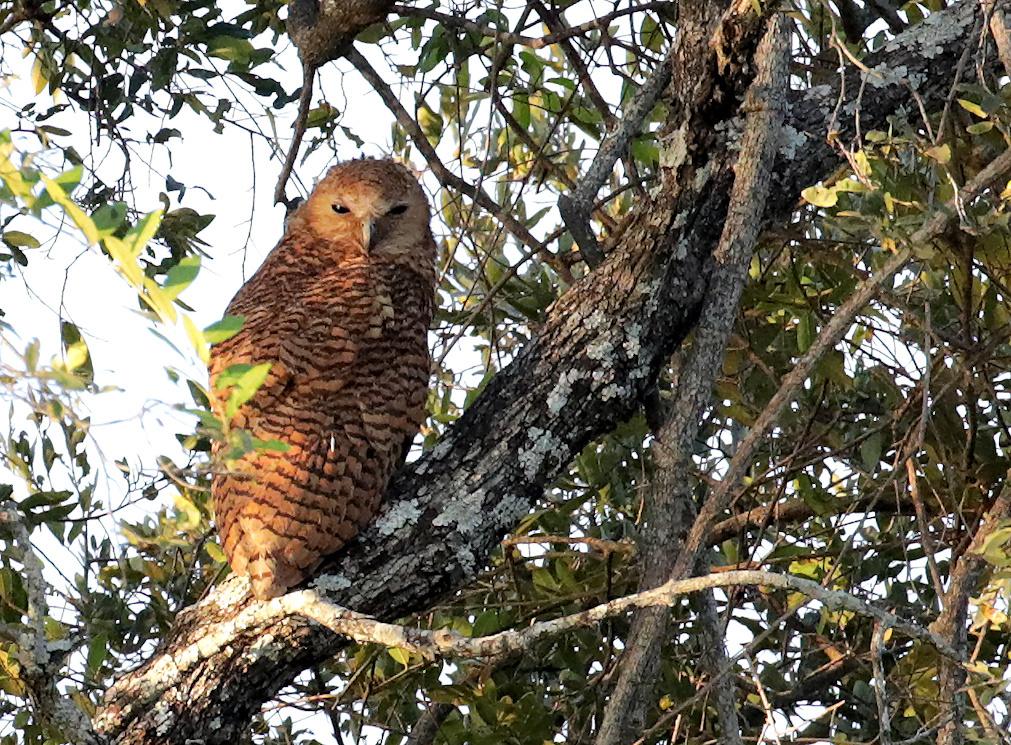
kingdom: Animalia
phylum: Chordata
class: Aves
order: Strigiformes
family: Strigidae
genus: Scotopelia
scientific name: Scotopelia peli
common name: Pel's fishing owl
